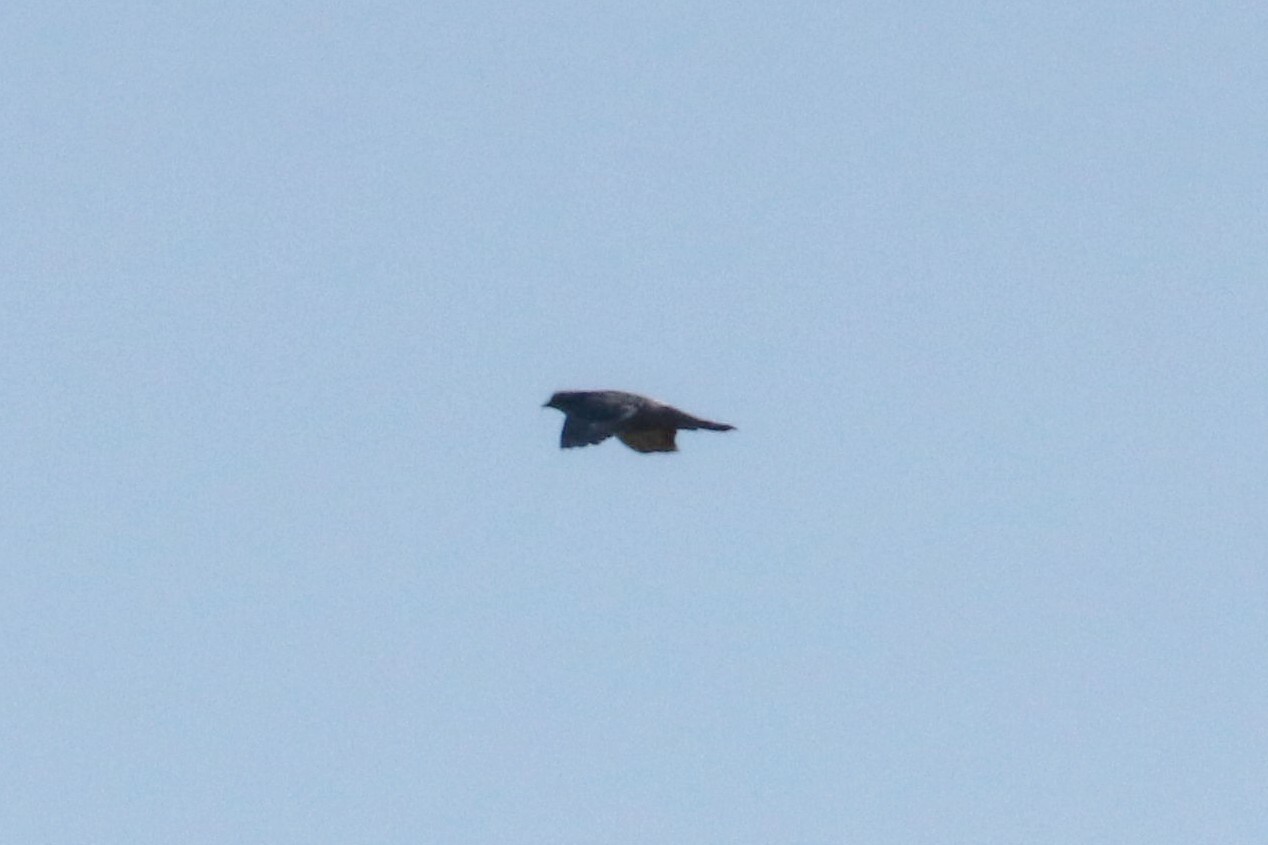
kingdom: Animalia
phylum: Chordata
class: Aves
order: Columbiformes
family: Columbidae
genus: Columba
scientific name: Columba livia
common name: Rock pigeon
